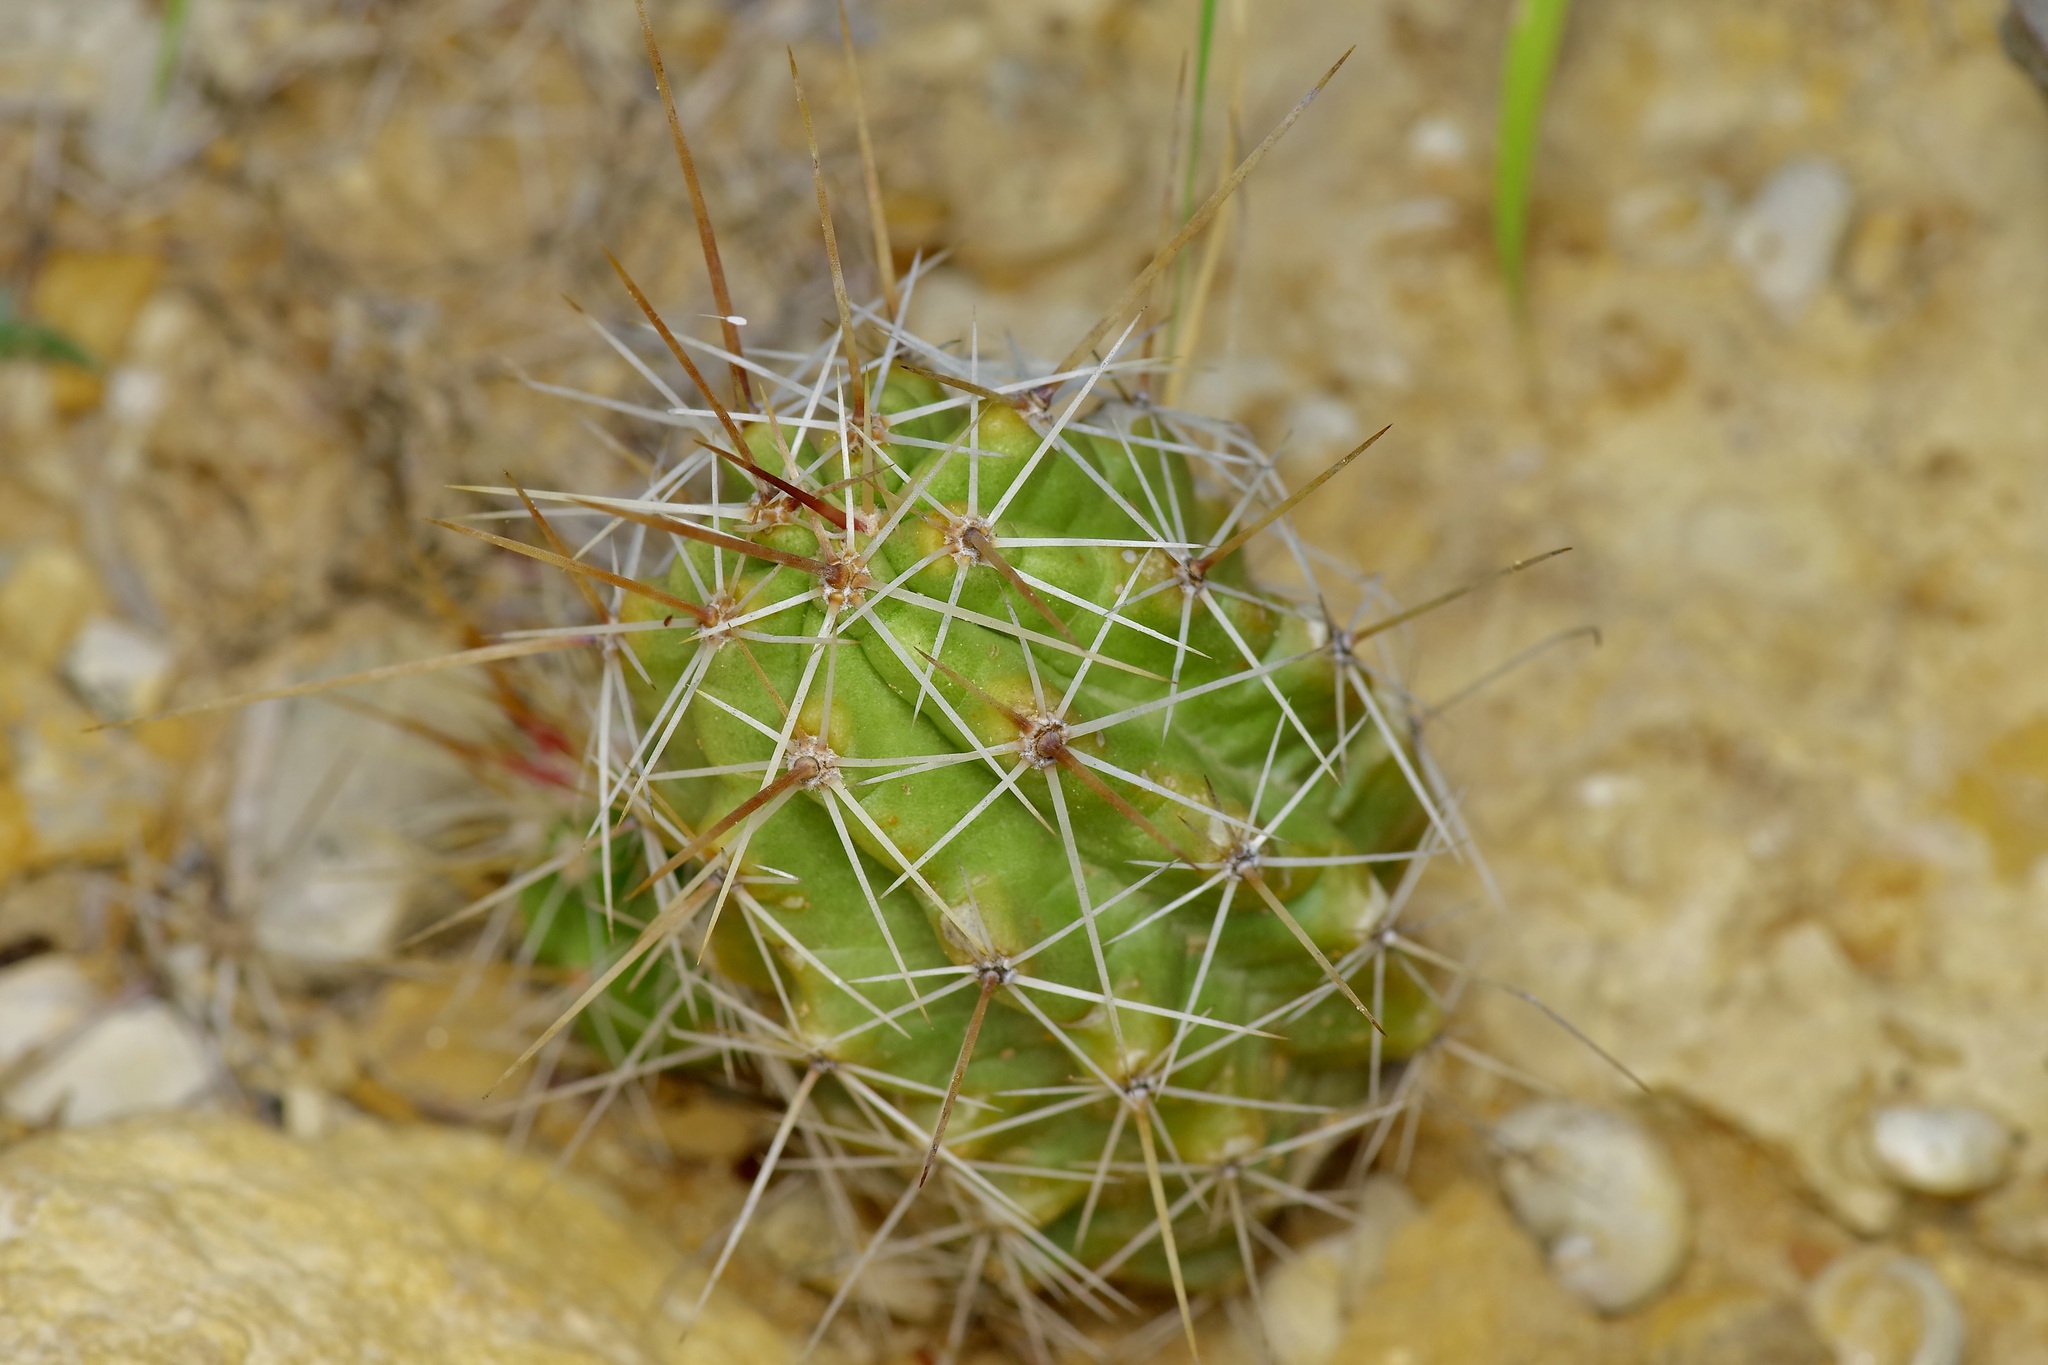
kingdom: Plantae
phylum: Tracheophyta
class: Magnoliopsida
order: Caryophyllales
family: Cactaceae
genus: Echinocereus
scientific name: Echinocereus enneacanthus
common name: Pitaya
